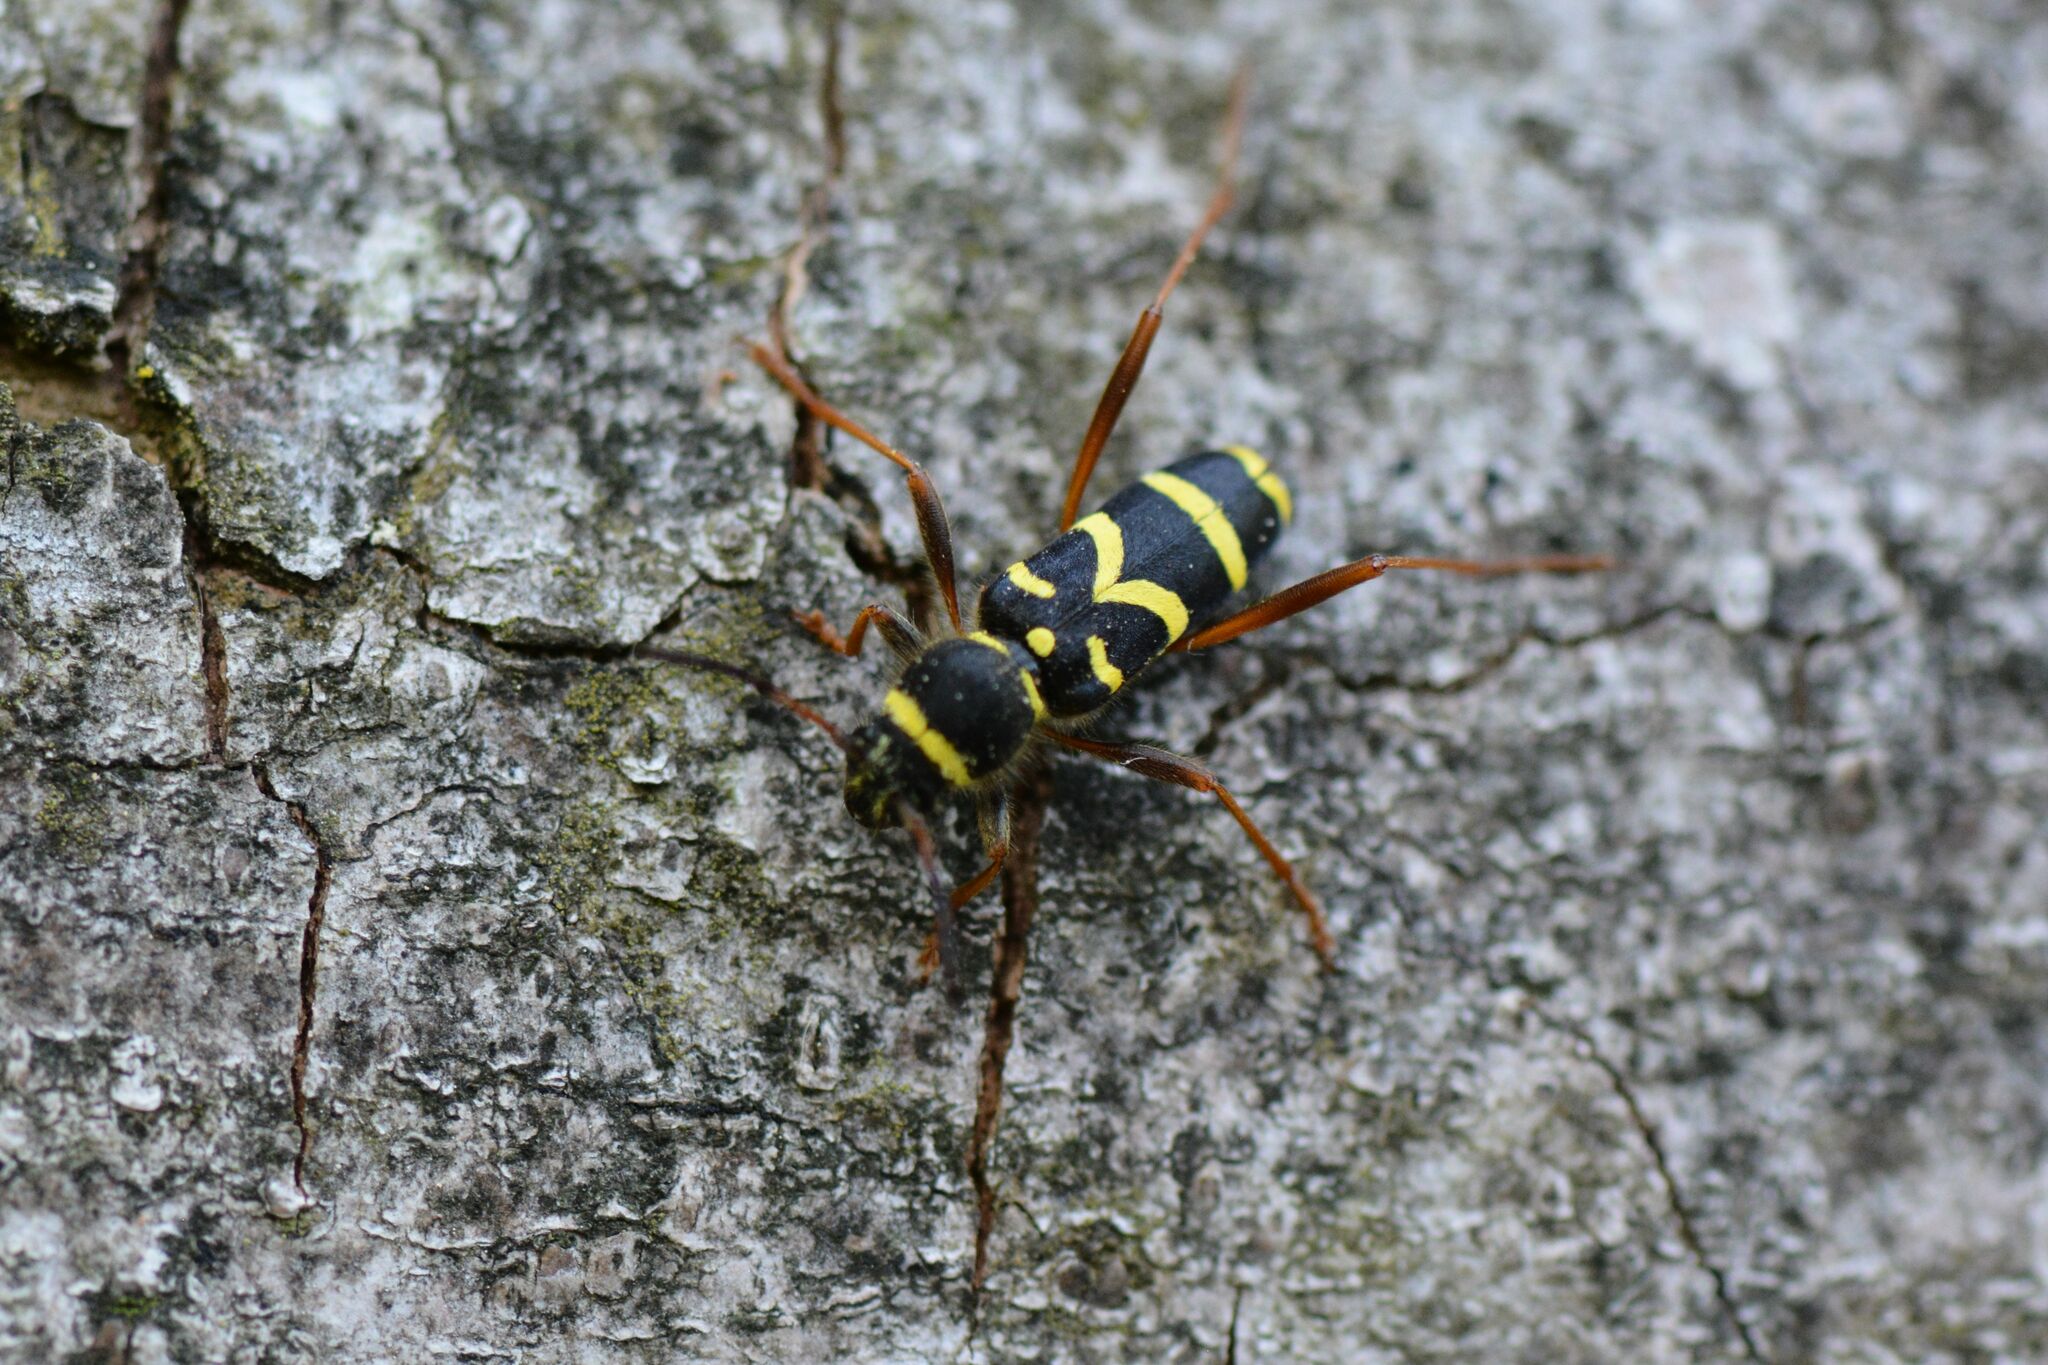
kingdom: Animalia
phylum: Arthropoda
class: Insecta
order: Coleoptera
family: Cerambycidae
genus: Clytus
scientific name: Clytus arietis
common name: Wasp beetle
